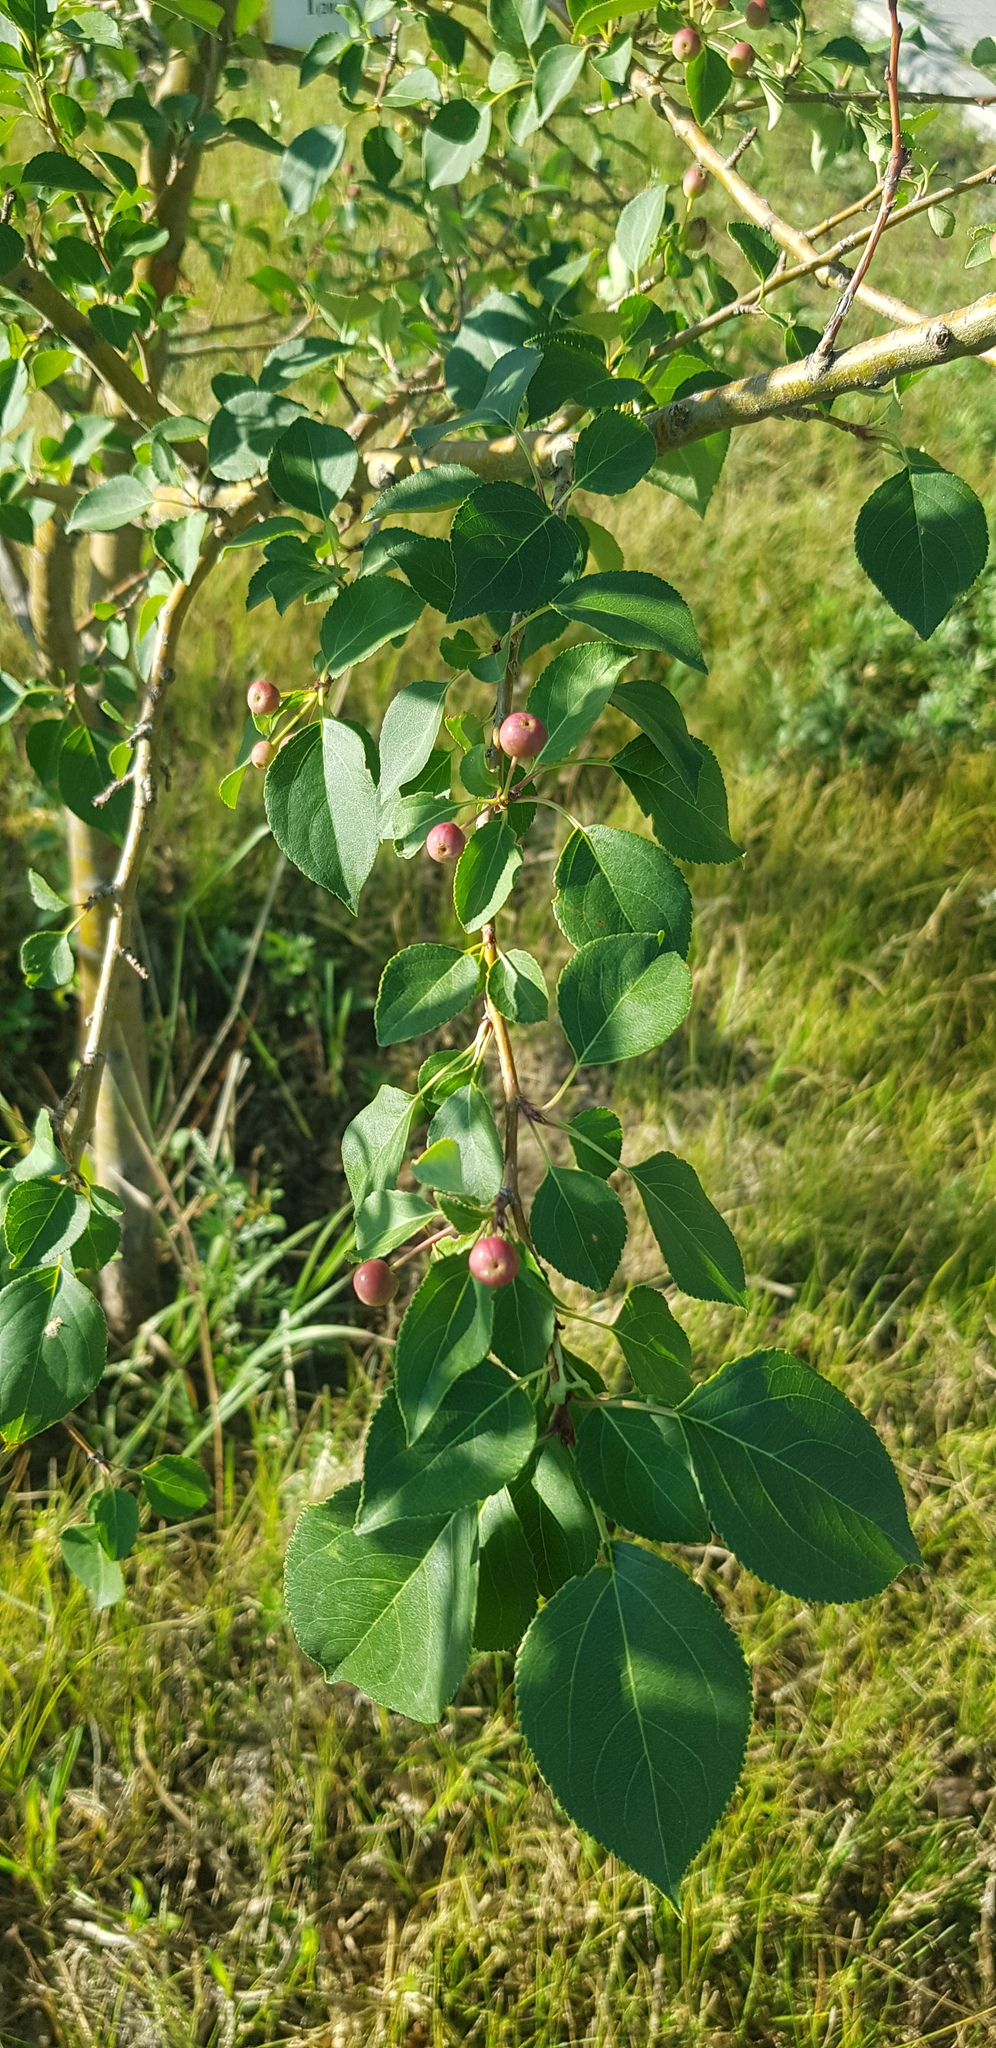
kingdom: Plantae
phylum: Tracheophyta
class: Magnoliopsida
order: Rosales
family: Rosaceae
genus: Malus
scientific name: Malus baccata
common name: Siberian crab
